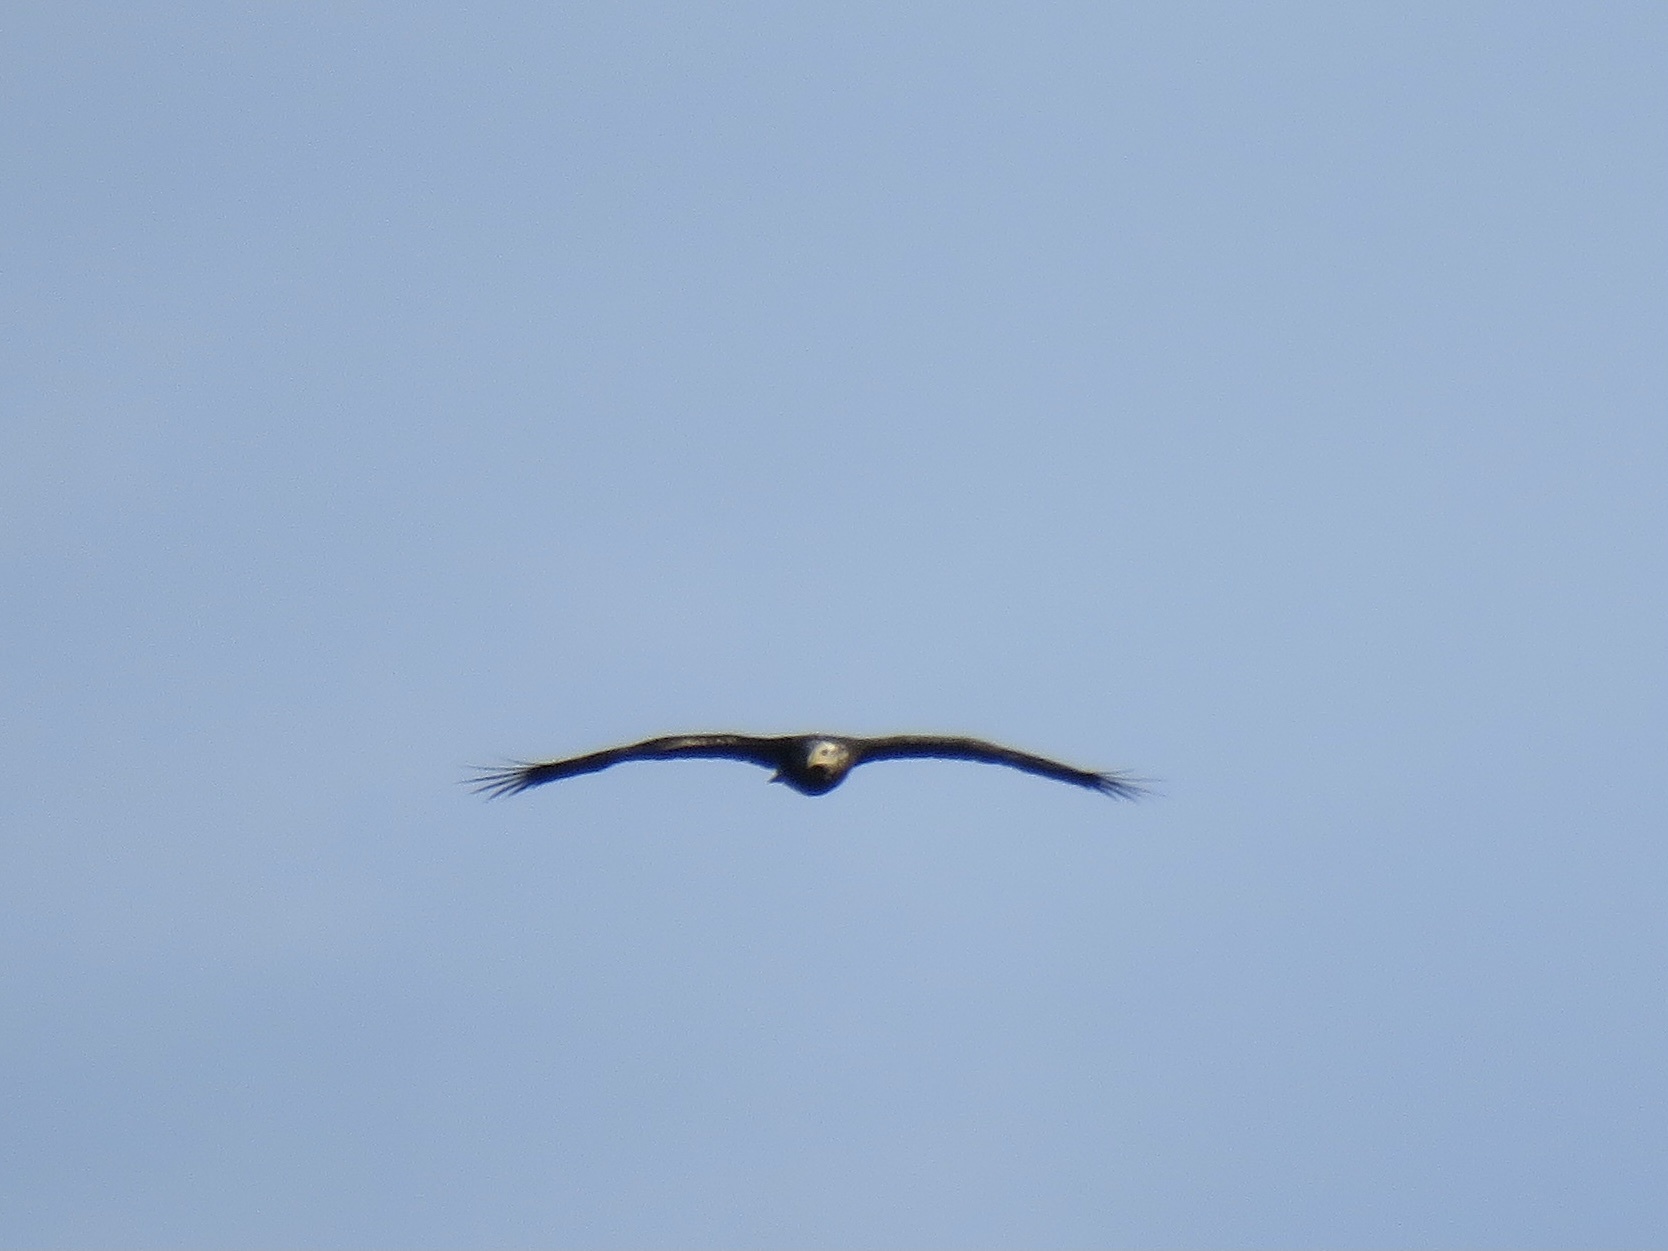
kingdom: Animalia
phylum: Chordata
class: Aves
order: Accipitriformes
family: Accipitridae
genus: Haliaeetus
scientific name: Haliaeetus leucocephalus
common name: Bald eagle
